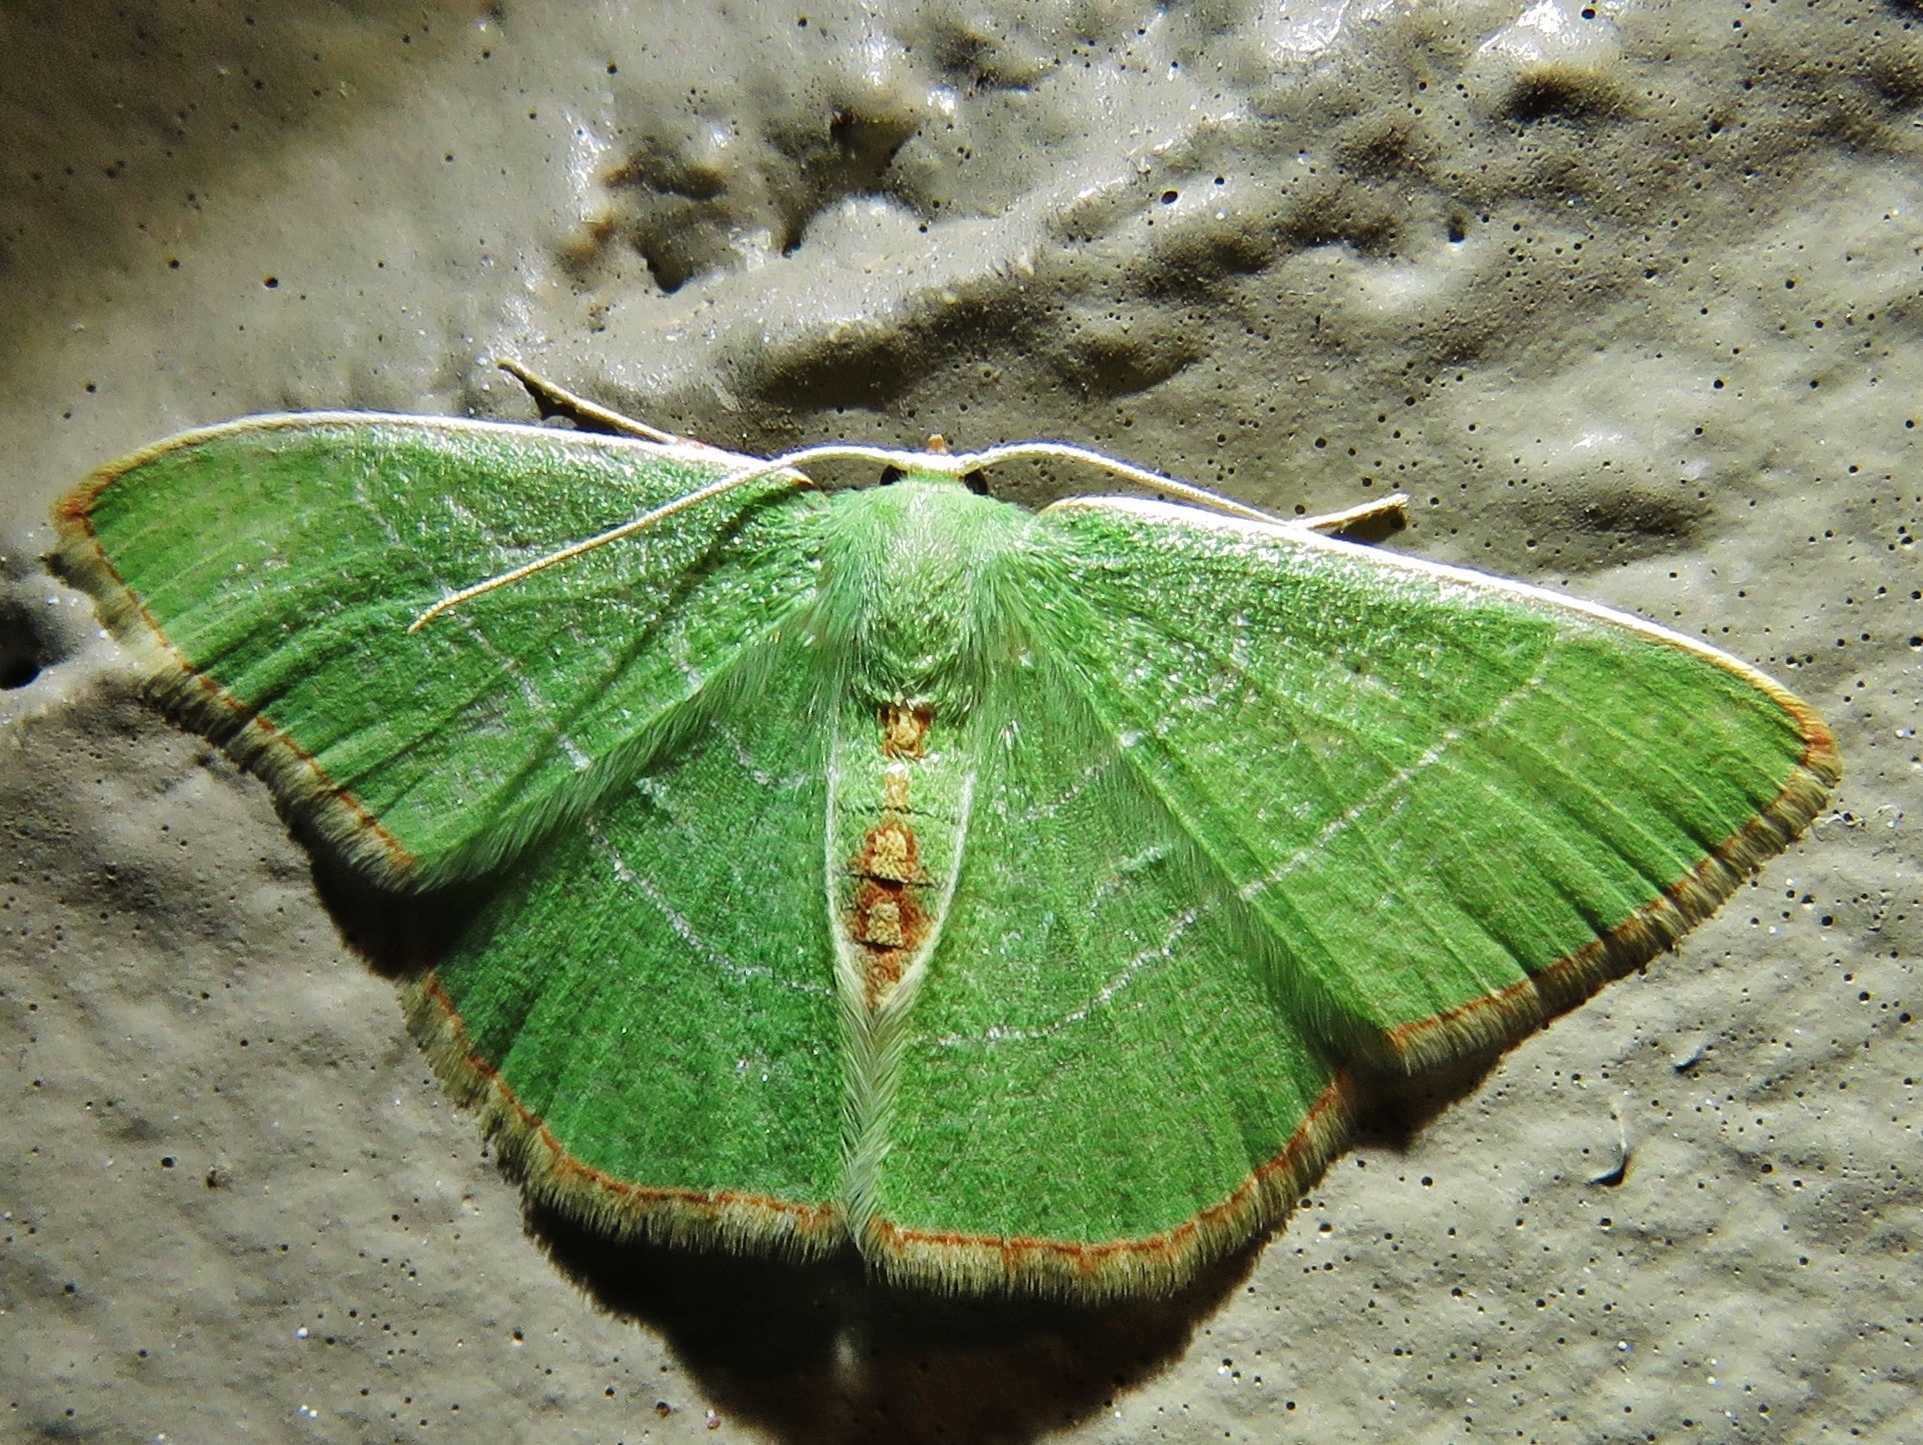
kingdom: Animalia
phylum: Arthropoda
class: Insecta
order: Lepidoptera
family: Geometridae
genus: Nemoria
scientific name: Nemoria bifilata
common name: White-barred emerald moth
